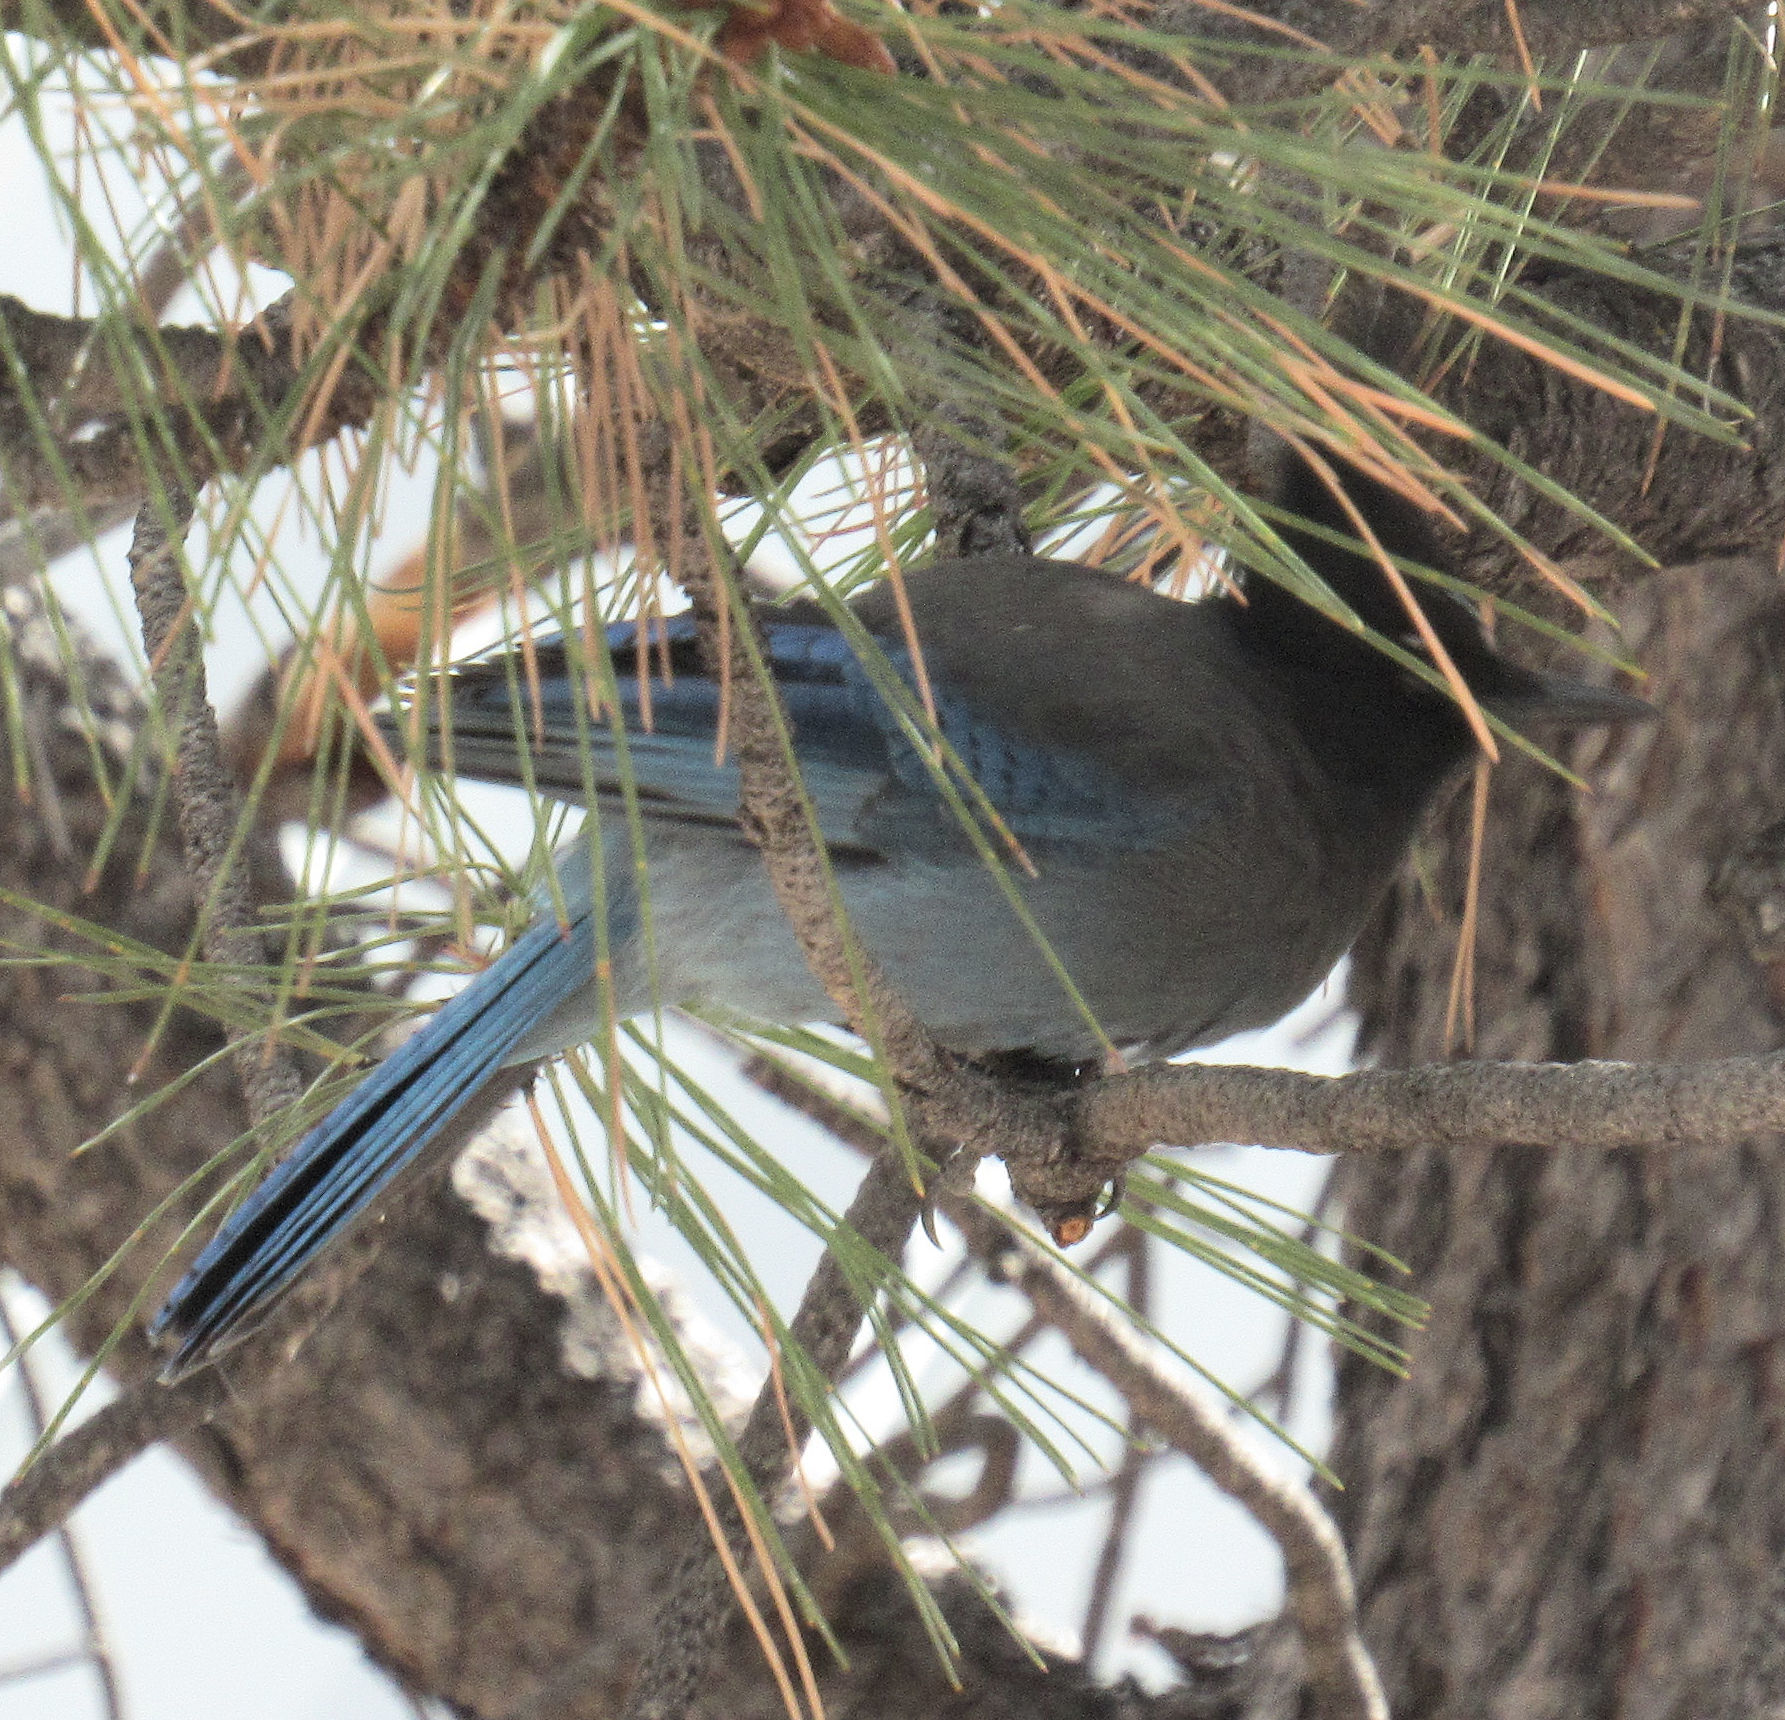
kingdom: Animalia
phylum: Chordata
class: Aves
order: Passeriformes
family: Corvidae
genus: Cyanocitta
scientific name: Cyanocitta stelleri
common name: Steller's jay
